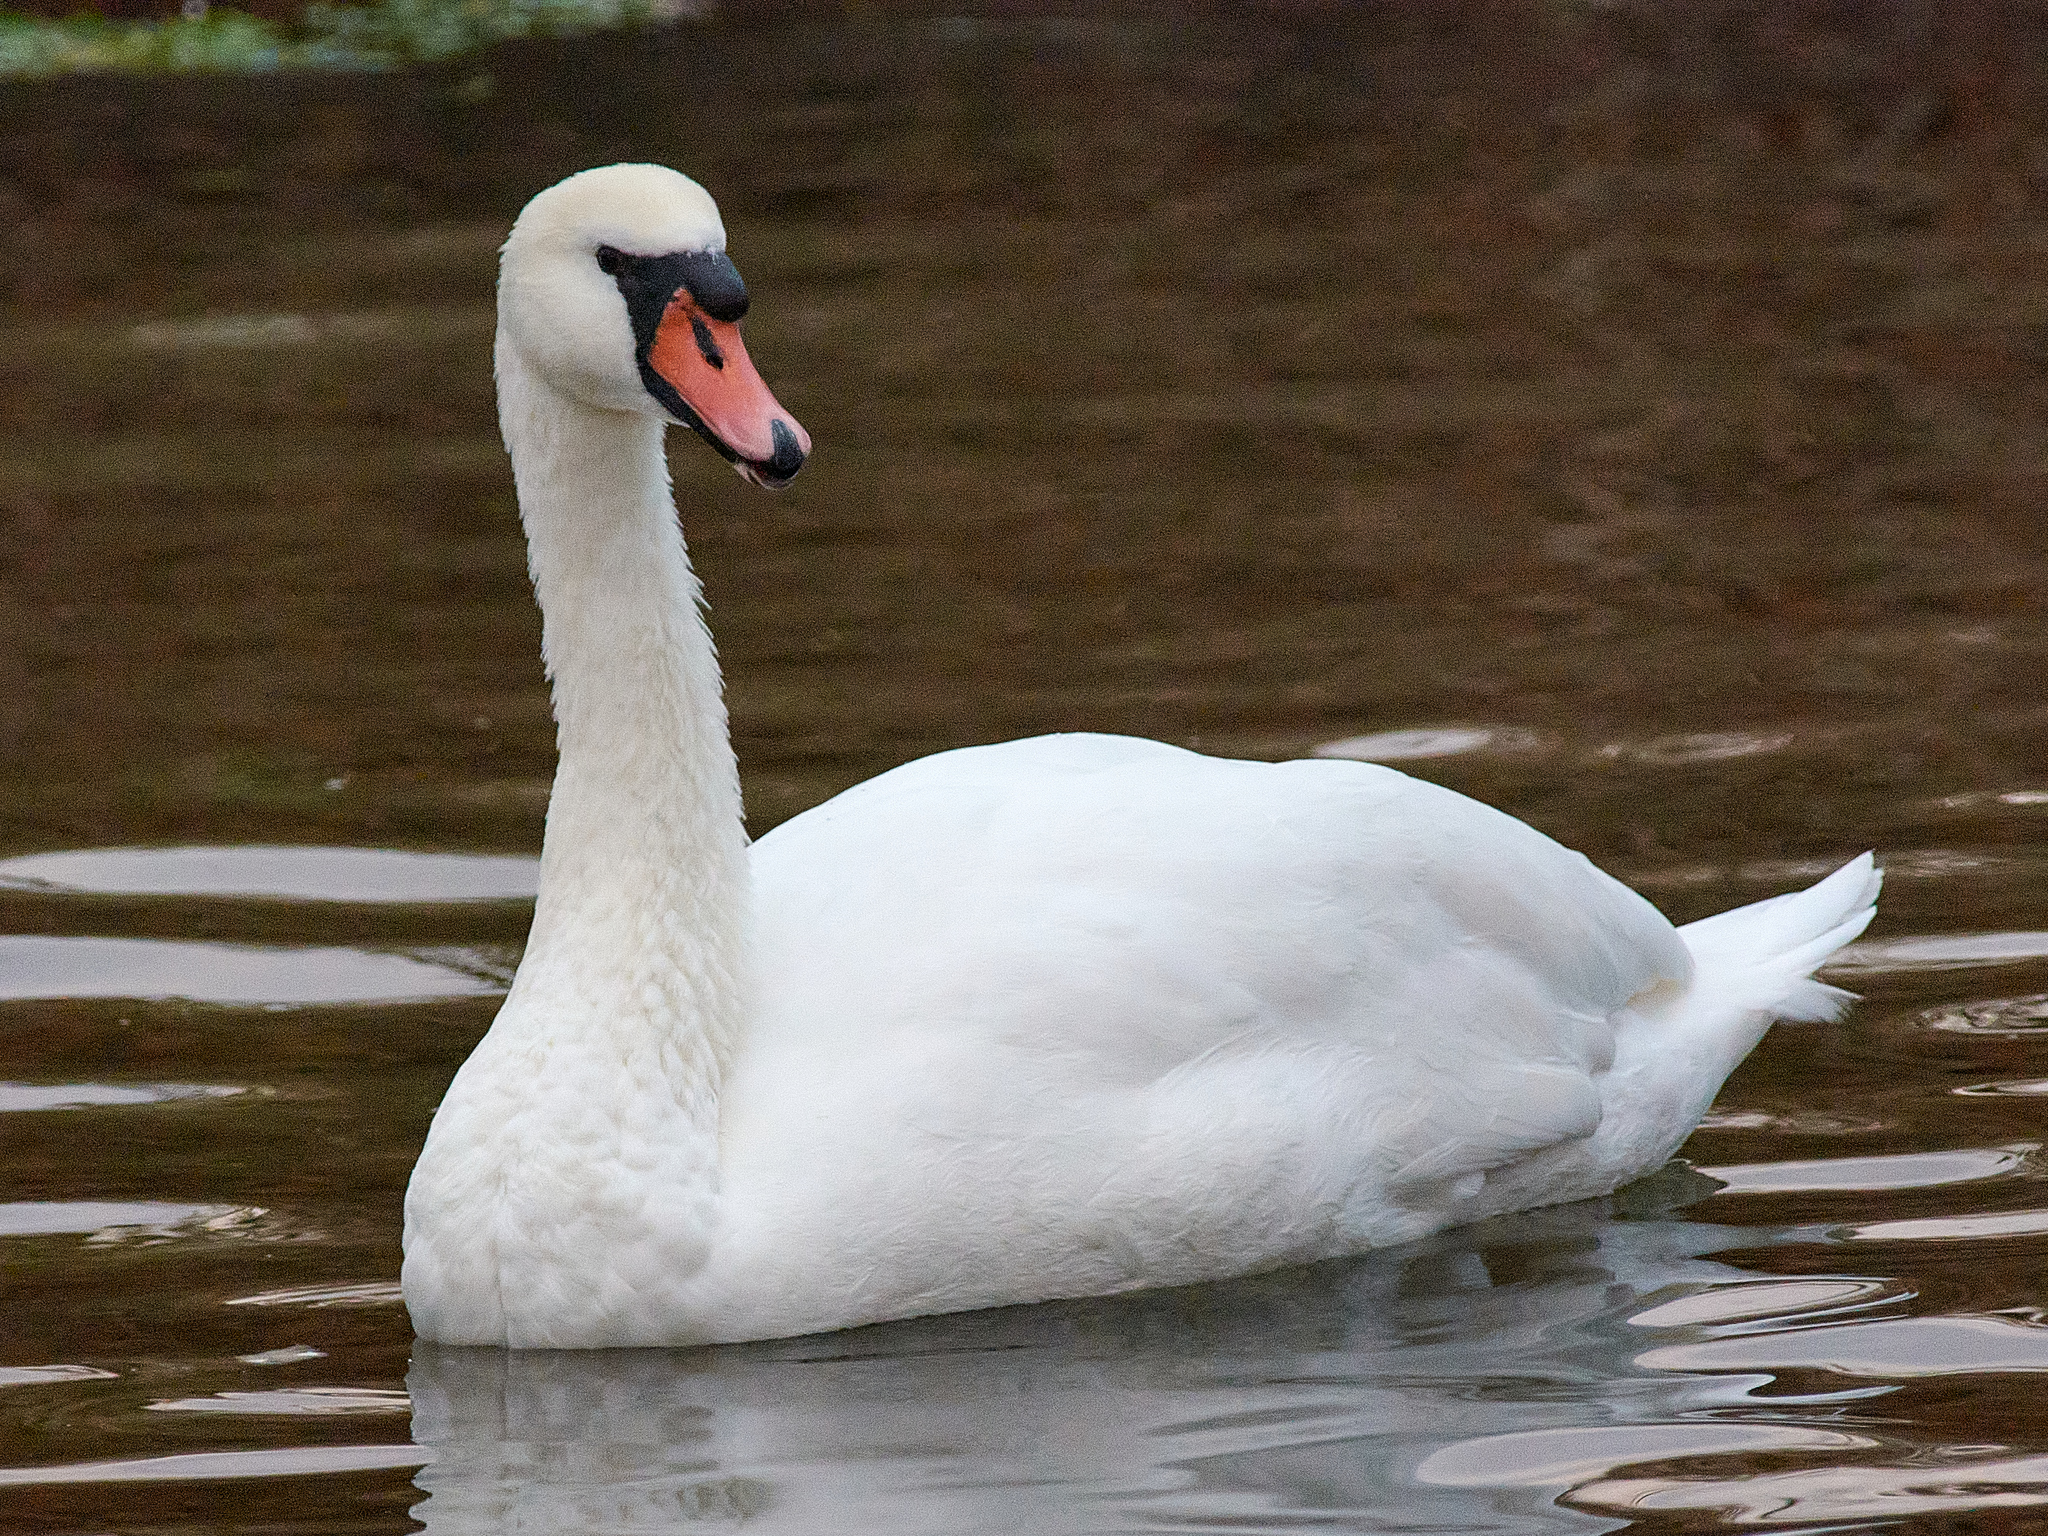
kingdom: Animalia
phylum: Chordata
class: Aves
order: Anseriformes
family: Anatidae
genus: Cygnus
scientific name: Cygnus olor
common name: Mute swan
